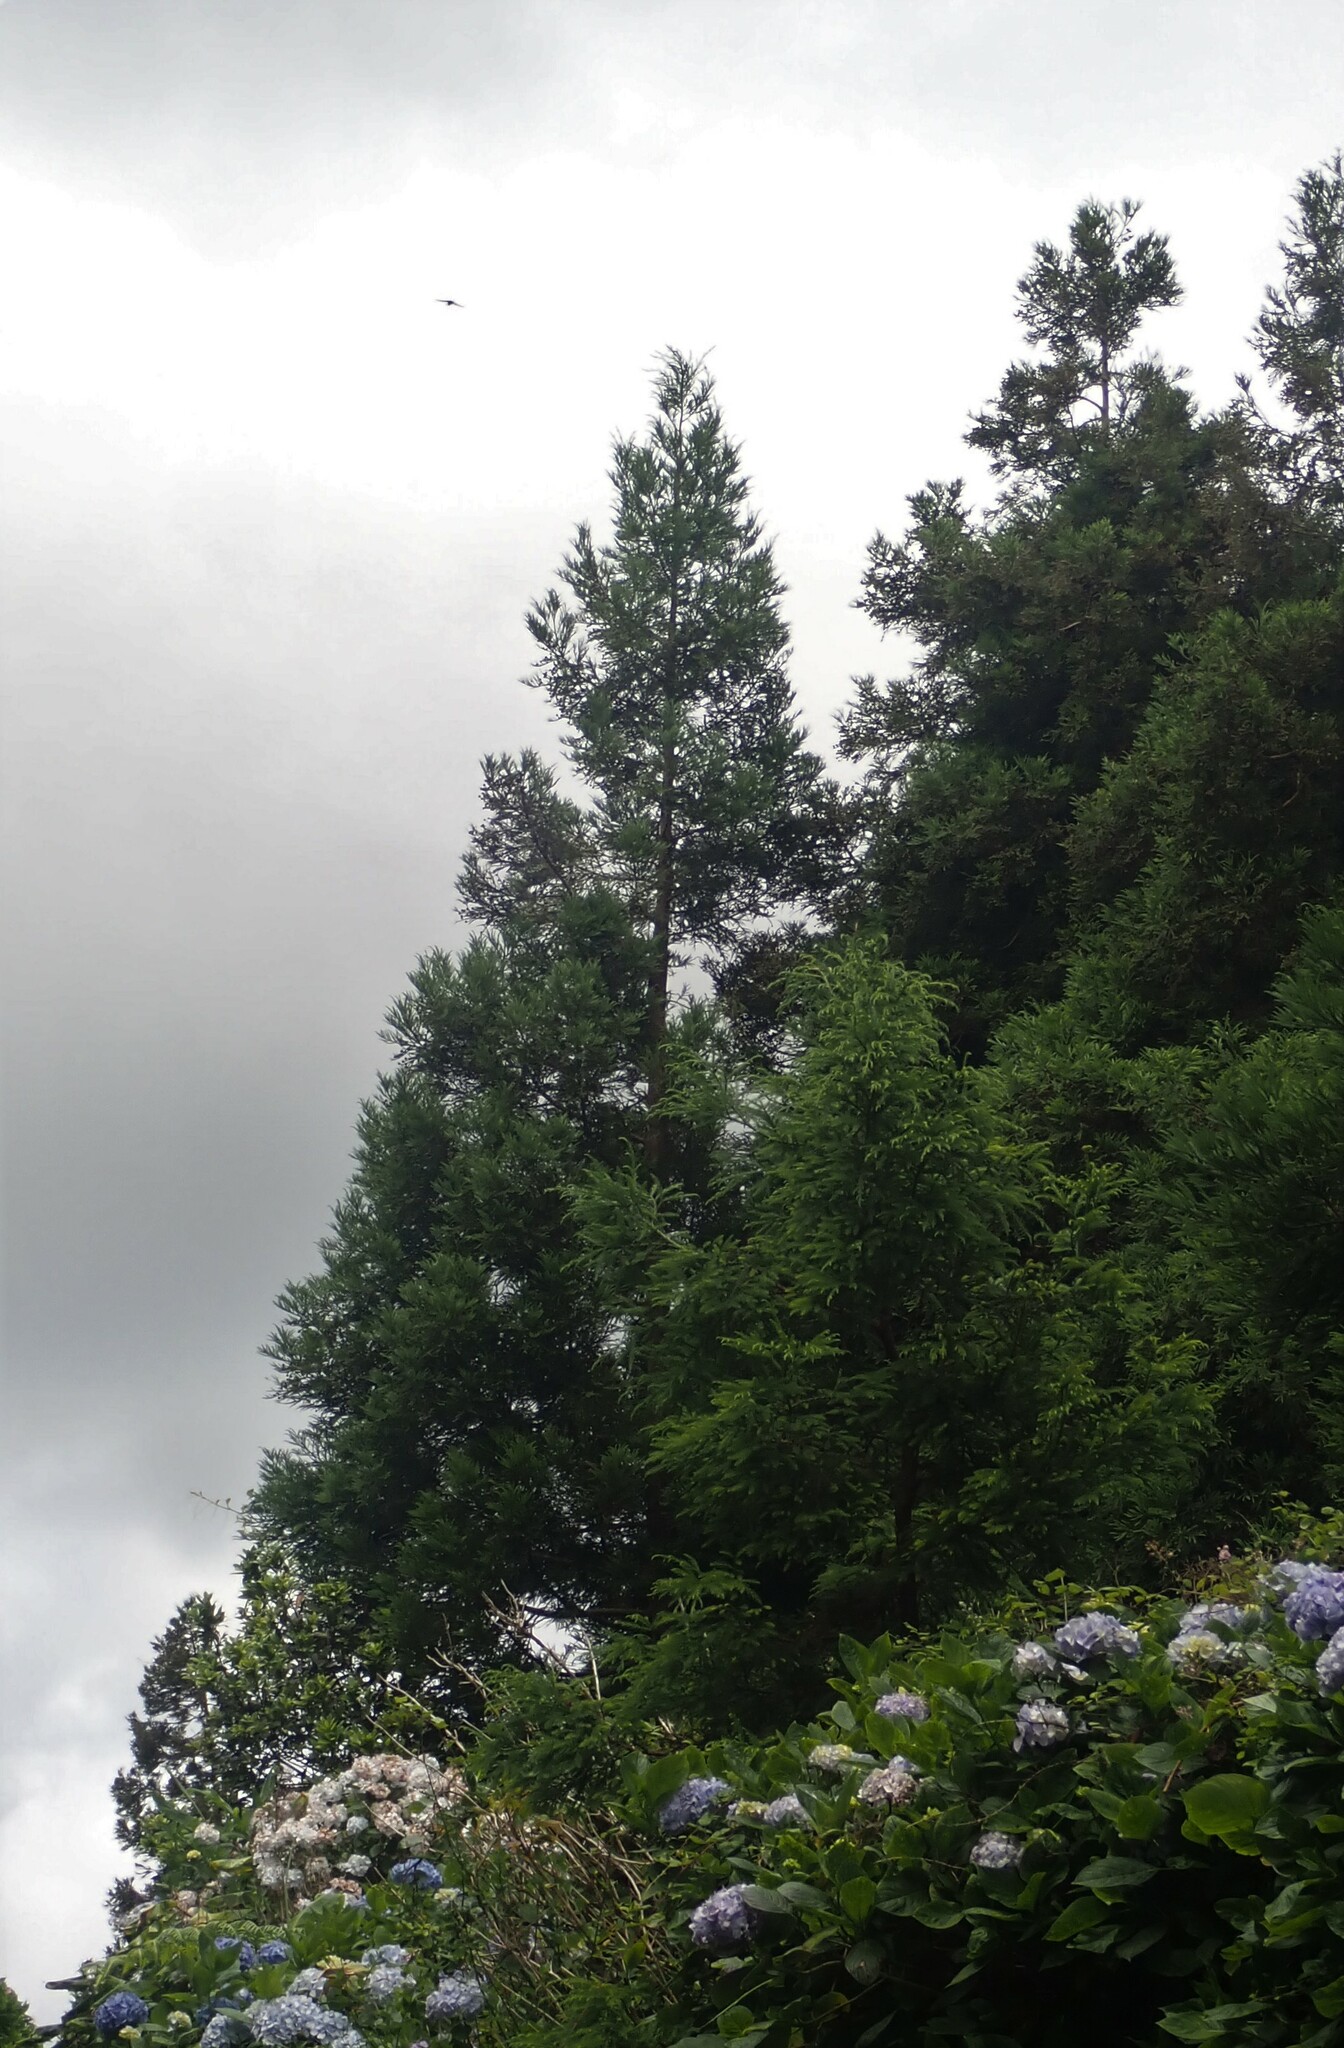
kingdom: Animalia
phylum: Chordata
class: Mammalia
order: Chiroptera
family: Vespertilionidae
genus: Nyctalus
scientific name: Nyctalus azoreum
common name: Azores noctule
